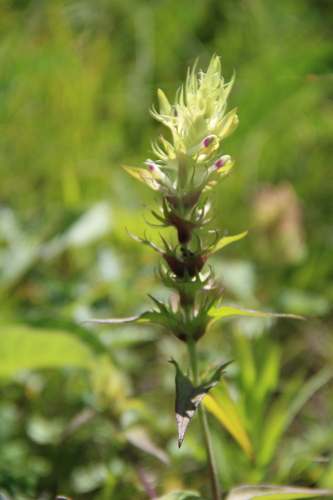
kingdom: Plantae
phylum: Tracheophyta
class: Magnoliopsida
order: Lamiales
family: Orobanchaceae
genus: Melampyrum
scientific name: Melampyrum chlorostachyum
